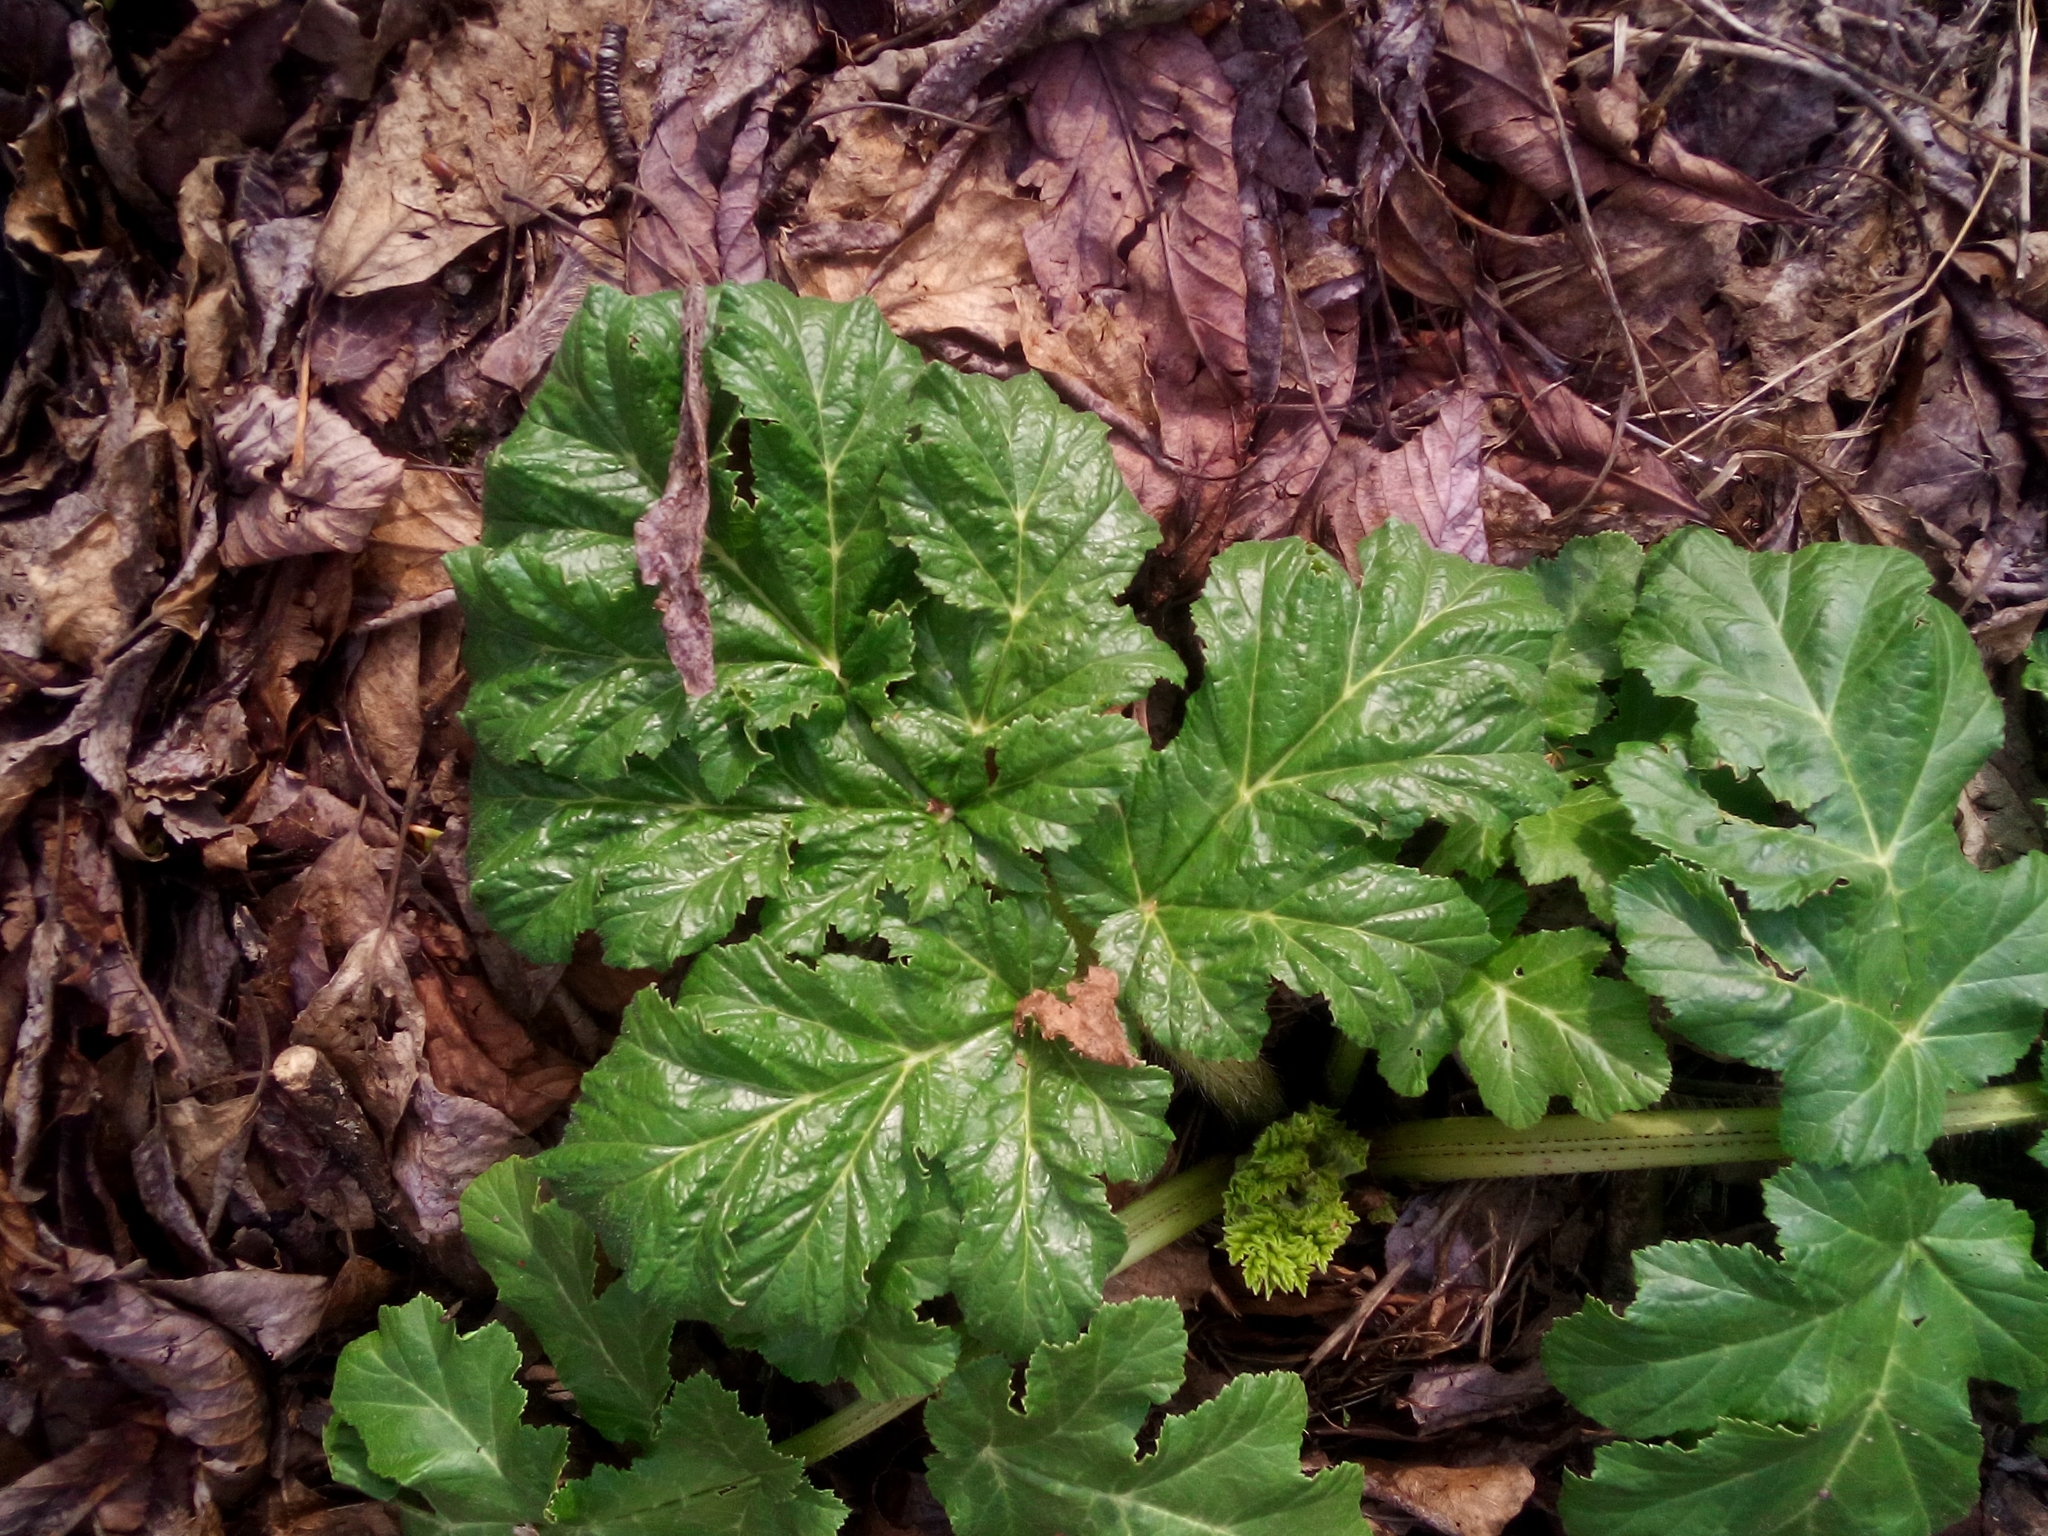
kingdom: Plantae
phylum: Tracheophyta
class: Magnoliopsida
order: Apiales
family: Apiaceae
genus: Heracleum
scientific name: Heracleum sosnowskyi
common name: Sosnowsky's hogweed
